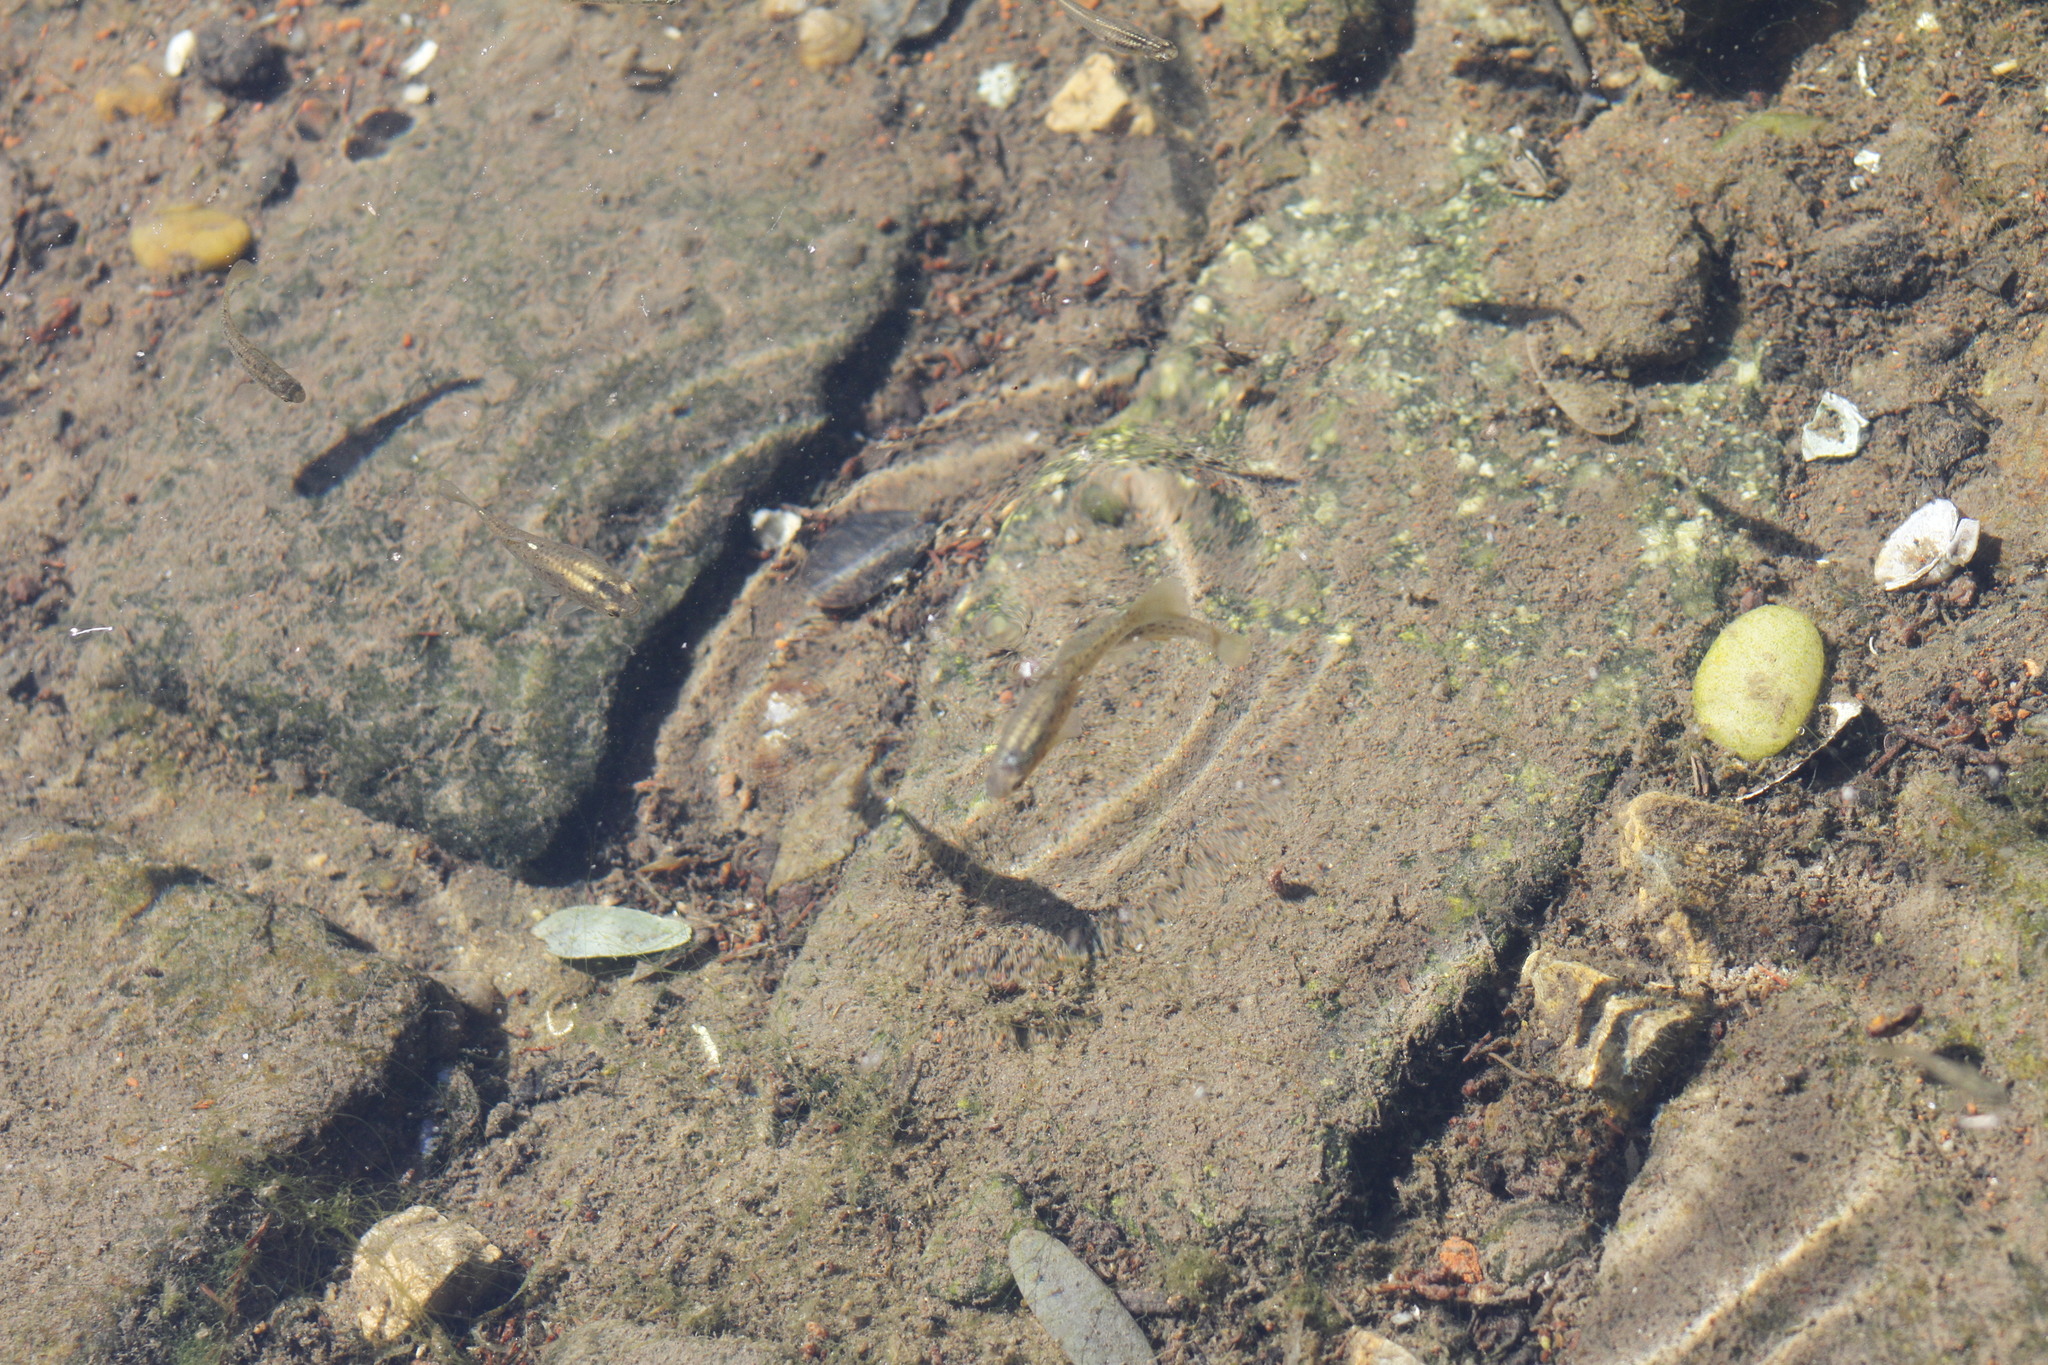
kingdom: Animalia
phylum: Chordata
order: Cyprinodontiformes
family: Anablepidae
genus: Jenynsia
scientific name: Jenynsia lineata
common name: Onesided livebearer
